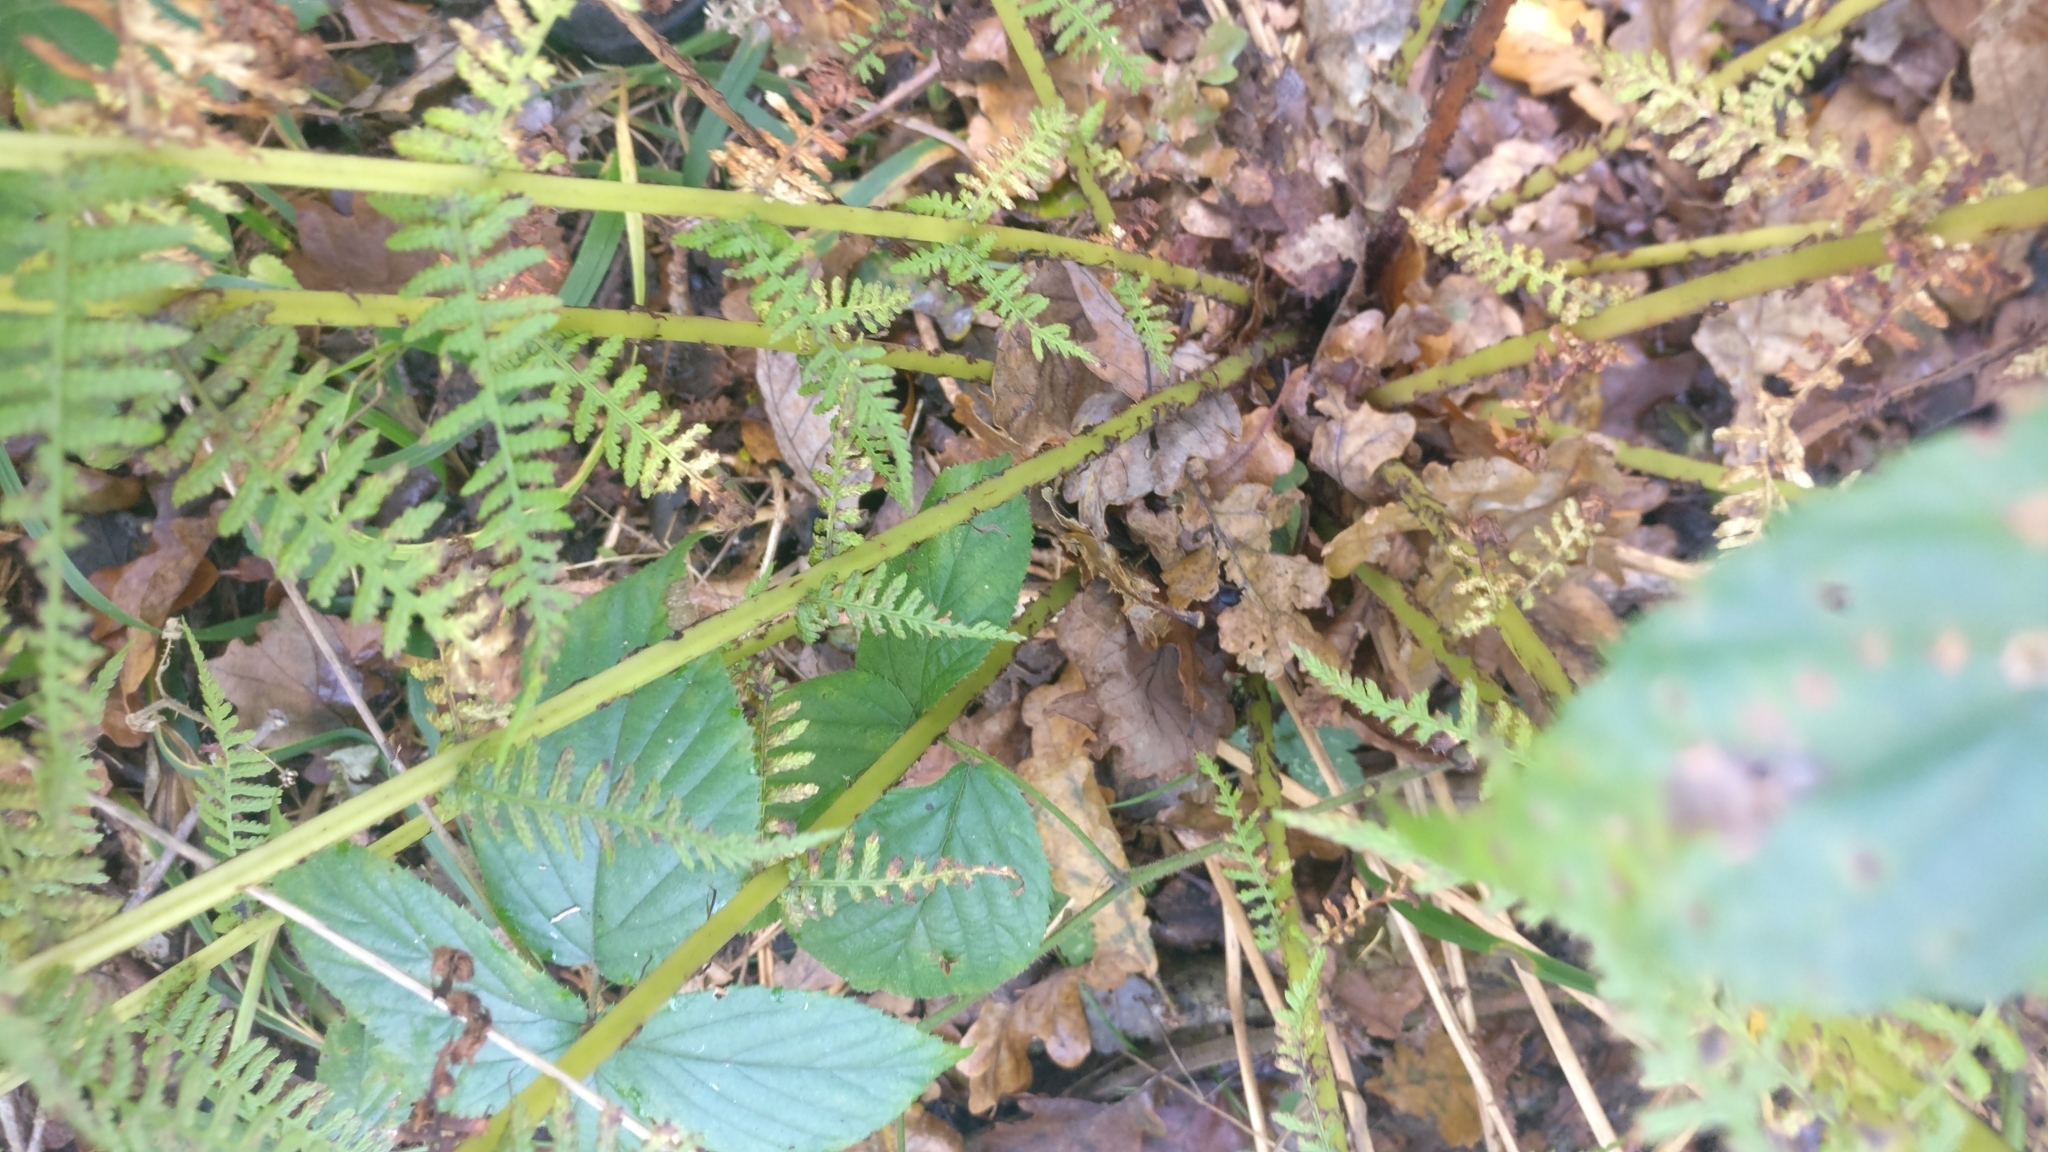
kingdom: Plantae
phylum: Tracheophyta
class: Polypodiopsida
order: Polypodiales
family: Athyriaceae
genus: Athyrium
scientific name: Athyrium filix-femina
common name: Lady fern
